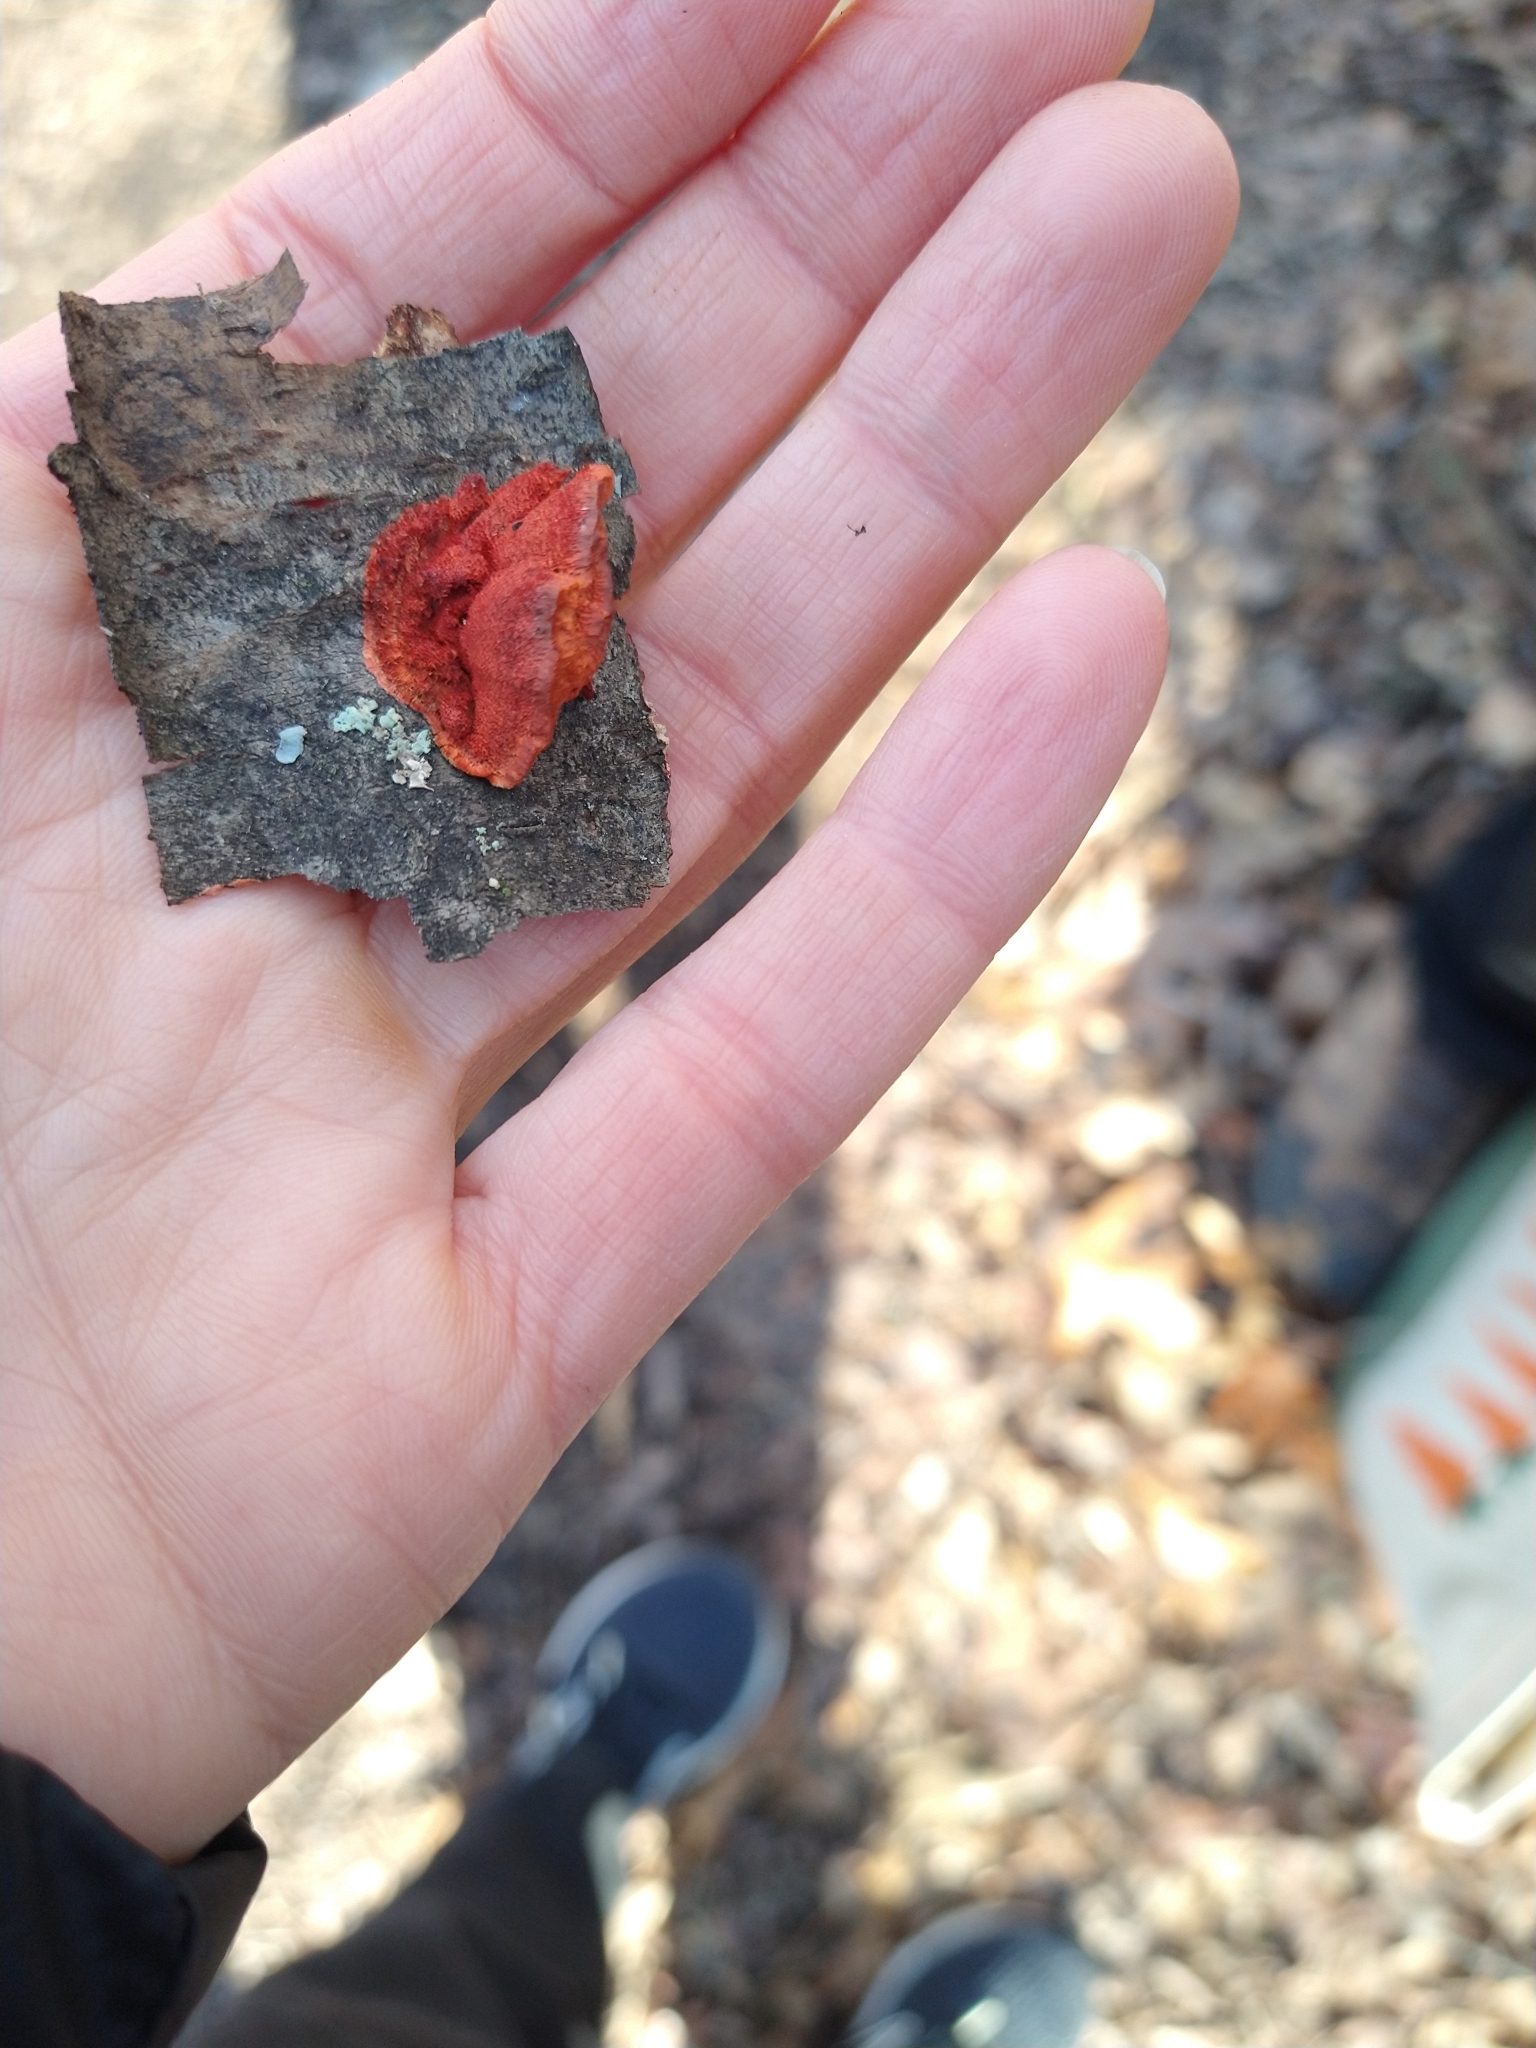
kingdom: Fungi
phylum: Basidiomycota
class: Agaricomycetes
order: Polyporales
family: Polyporaceae
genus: Trametes
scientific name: Trametes cinnabarina
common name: Northern cinnabar polypore
